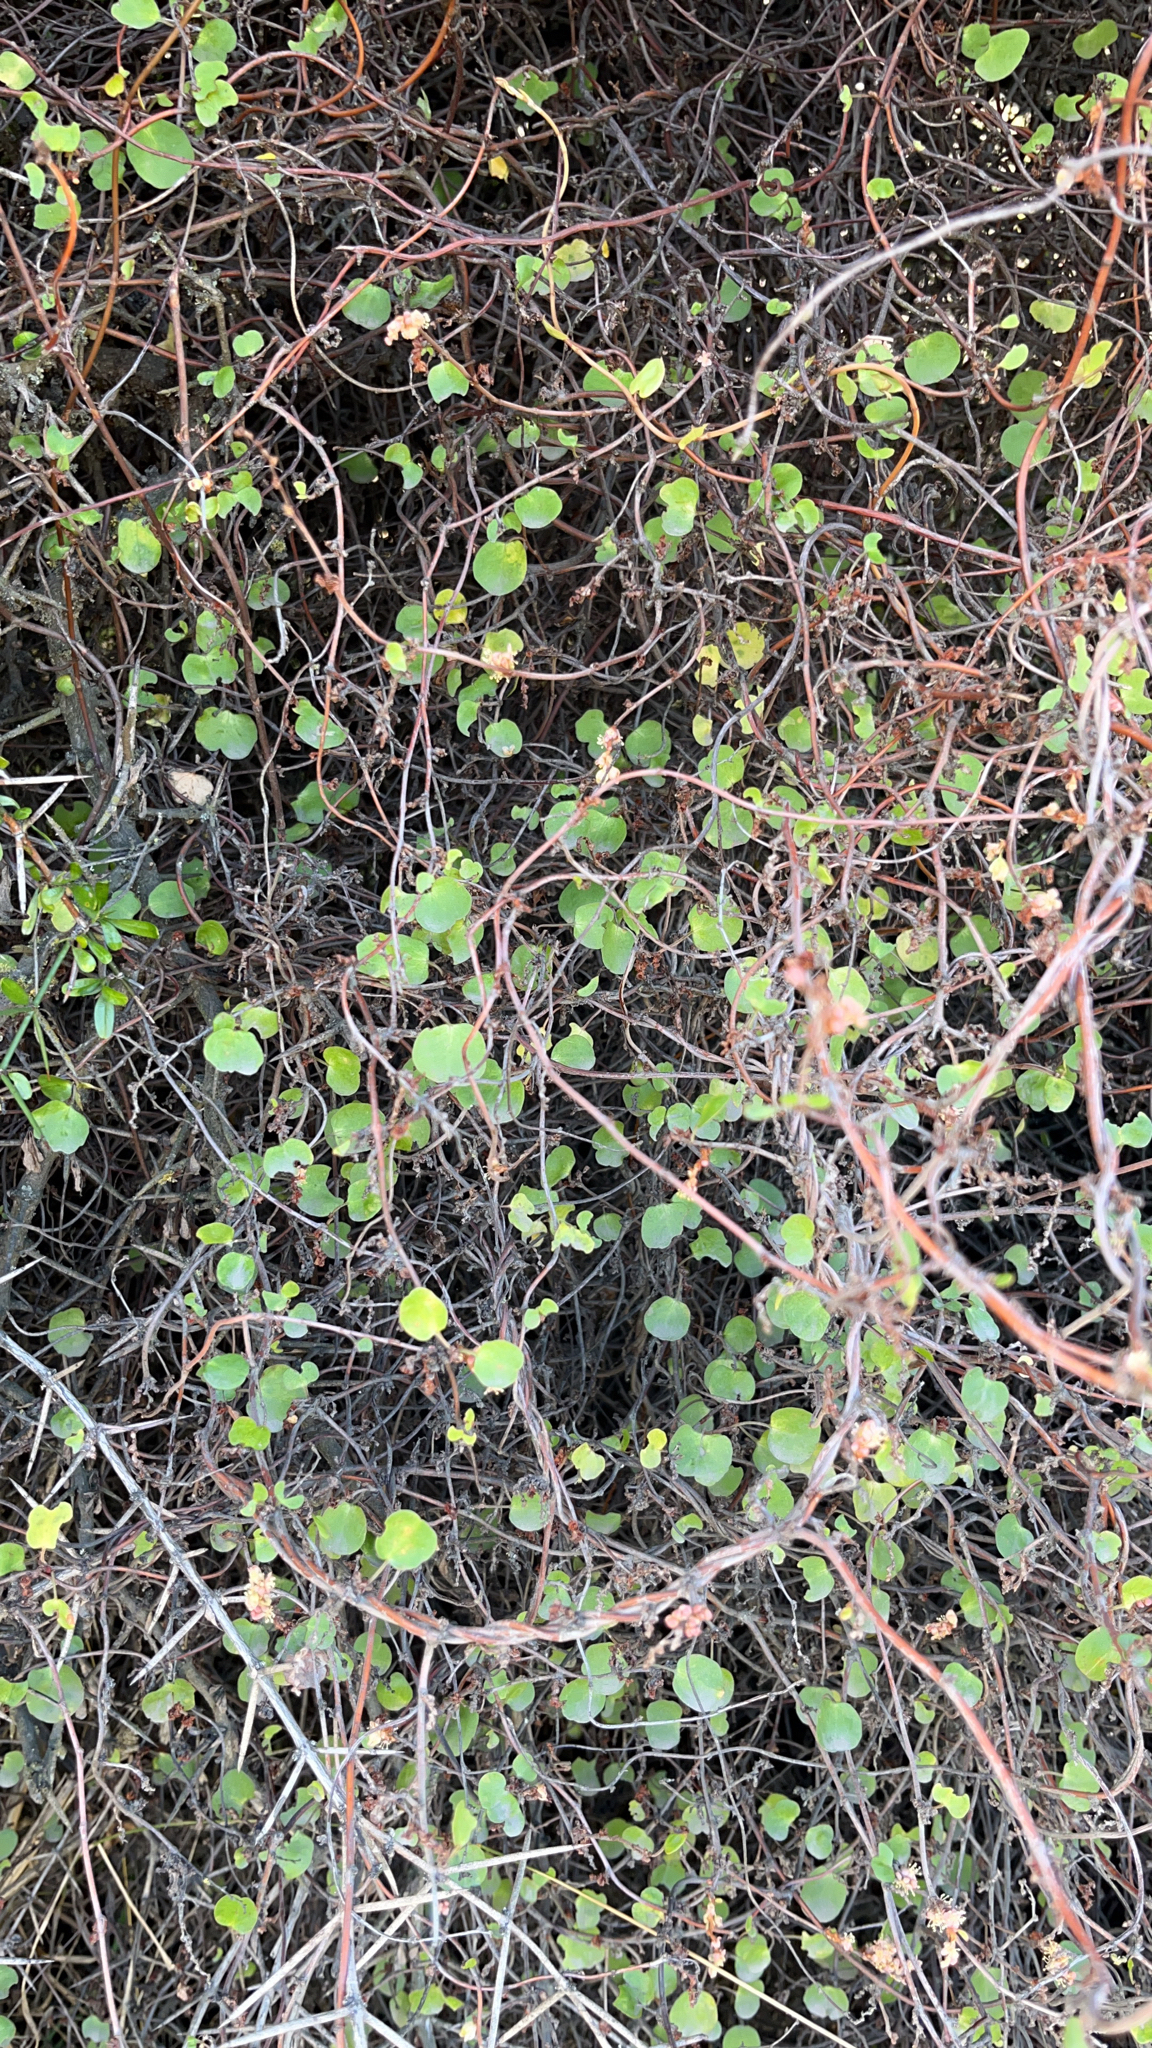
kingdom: Plantae
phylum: Tracheophyta
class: Magnoliopsida
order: Caryophyllales
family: Polygonaceae
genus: Muehlenbeckia
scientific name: Muehlenbeckia complexa
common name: Wireplant
